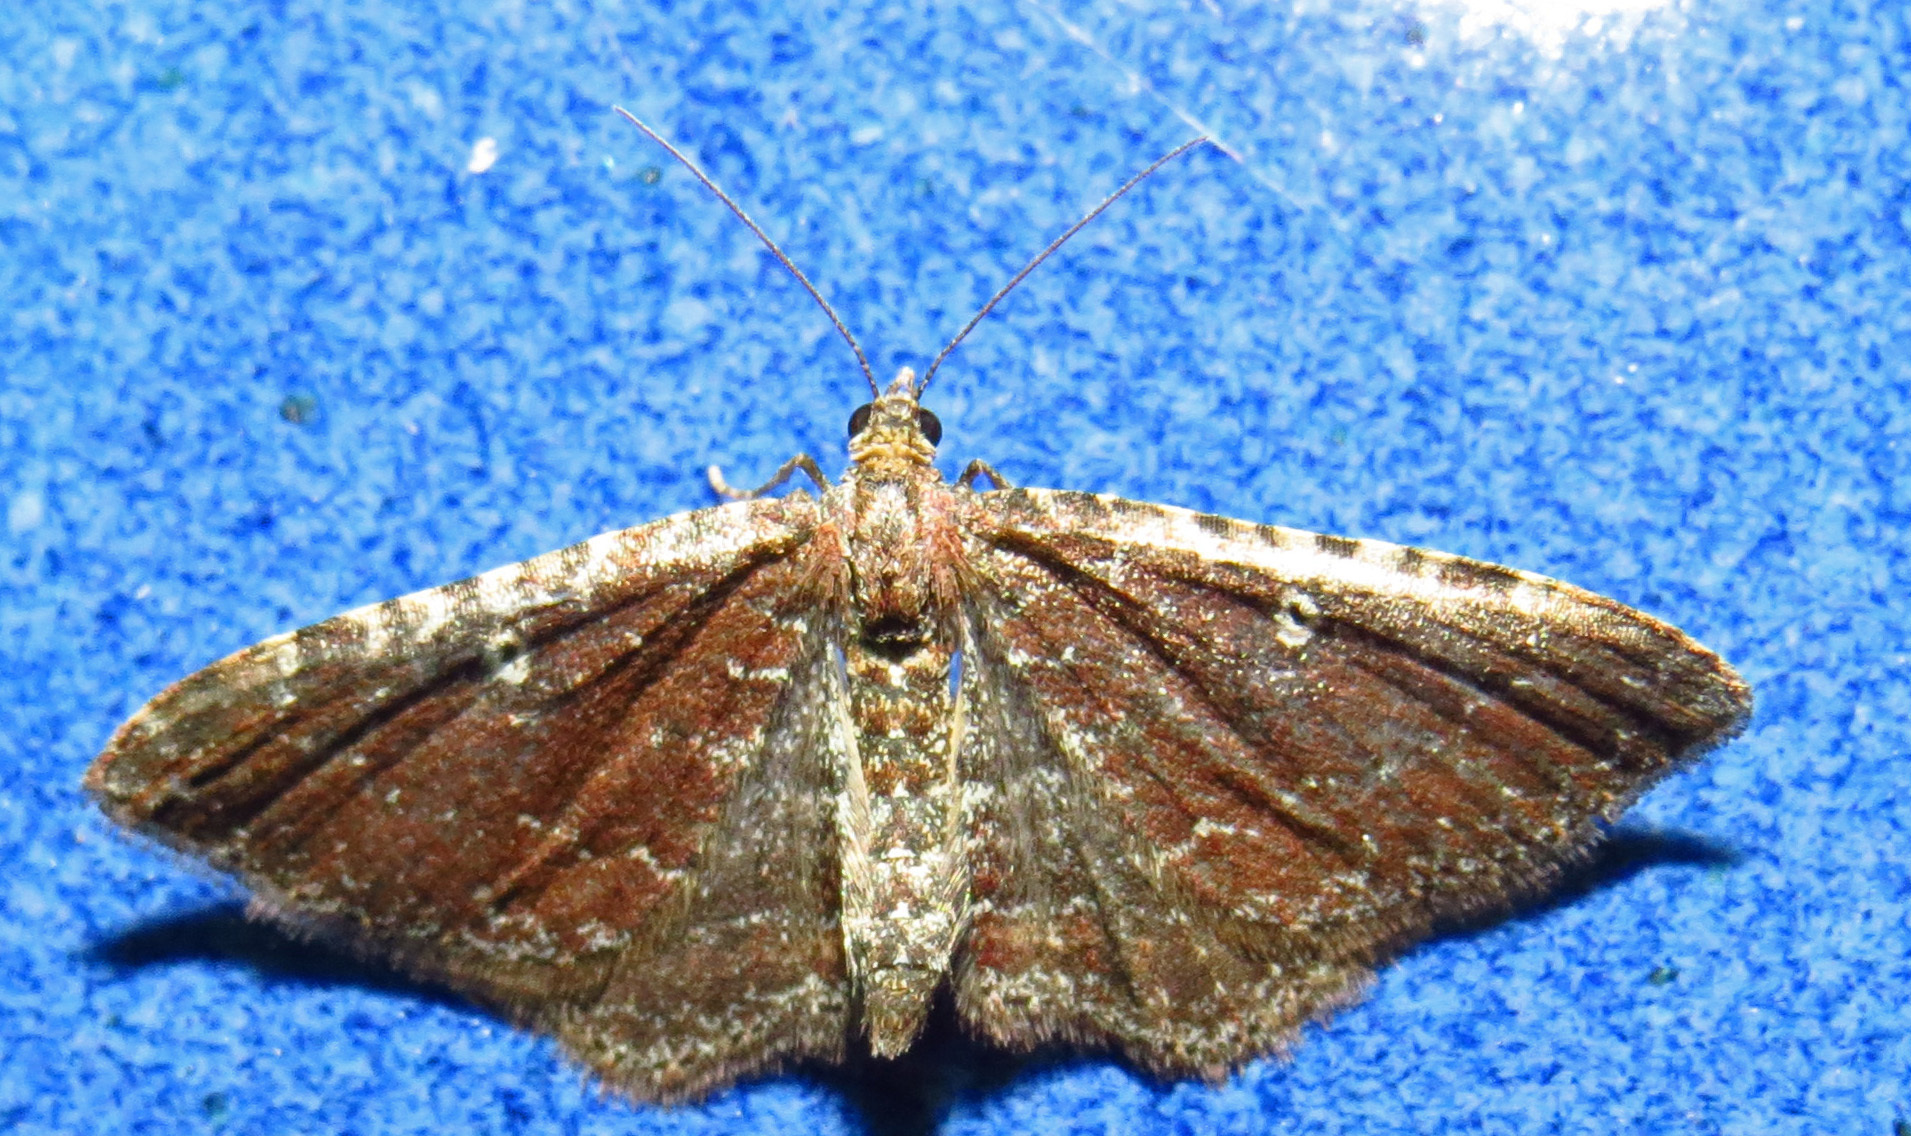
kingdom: Animalia
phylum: Arthropoda
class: Insecta
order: Lepidoptera
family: Geometridae
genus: Orthonama
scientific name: Orthonama obstipata
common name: The gem
